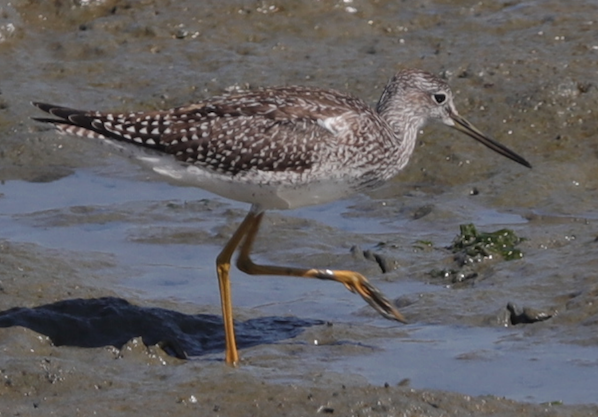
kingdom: Animalia
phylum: Chordata
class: Aves
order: Charadriiformes
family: Scolopacidae
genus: Tringa
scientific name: Tringa melanoleuca
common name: Greater yellowlegs
